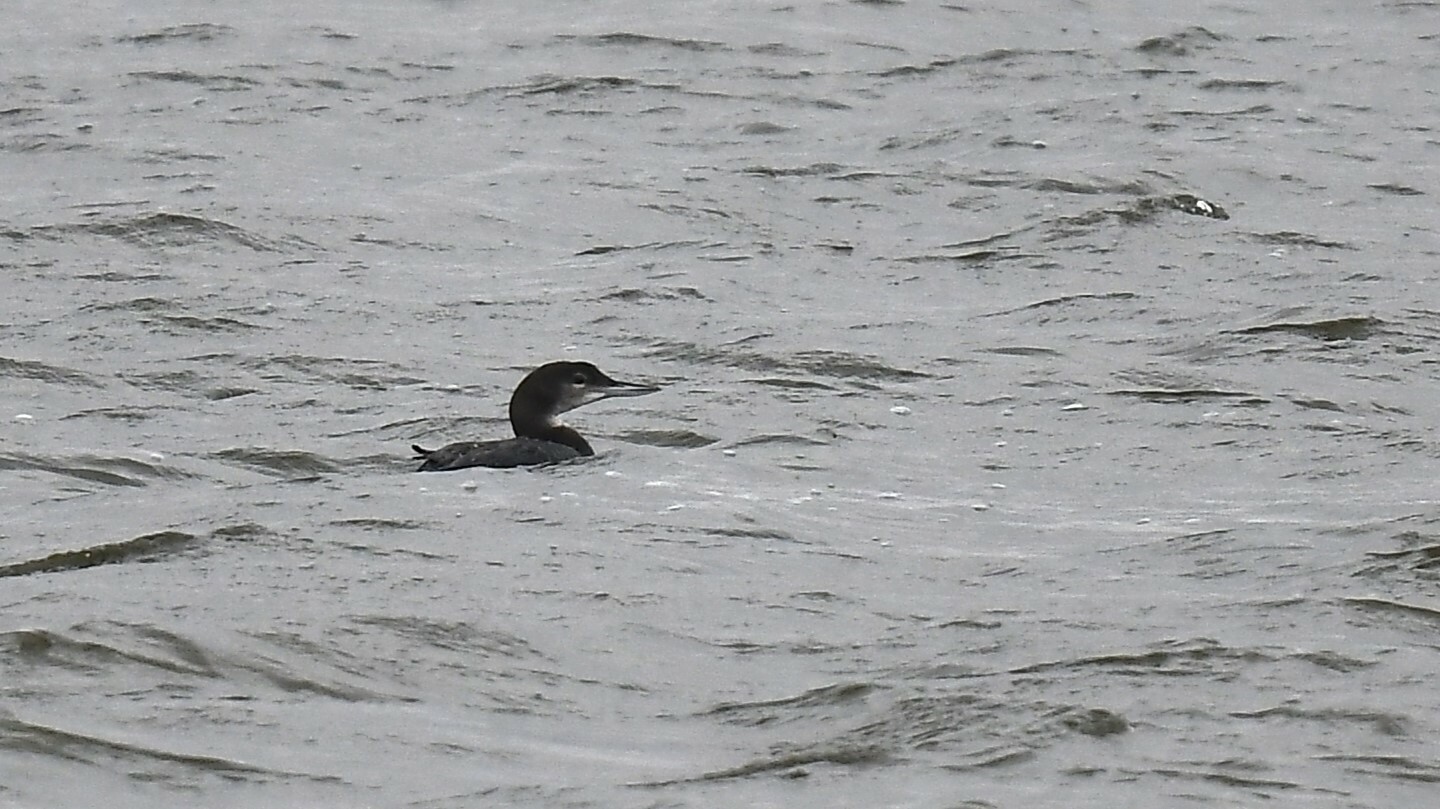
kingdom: Animalia
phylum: Chordata
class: Aves
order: Gaviiformes
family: Gaviidae
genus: Gavia
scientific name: Gavia immer
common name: Common loon
